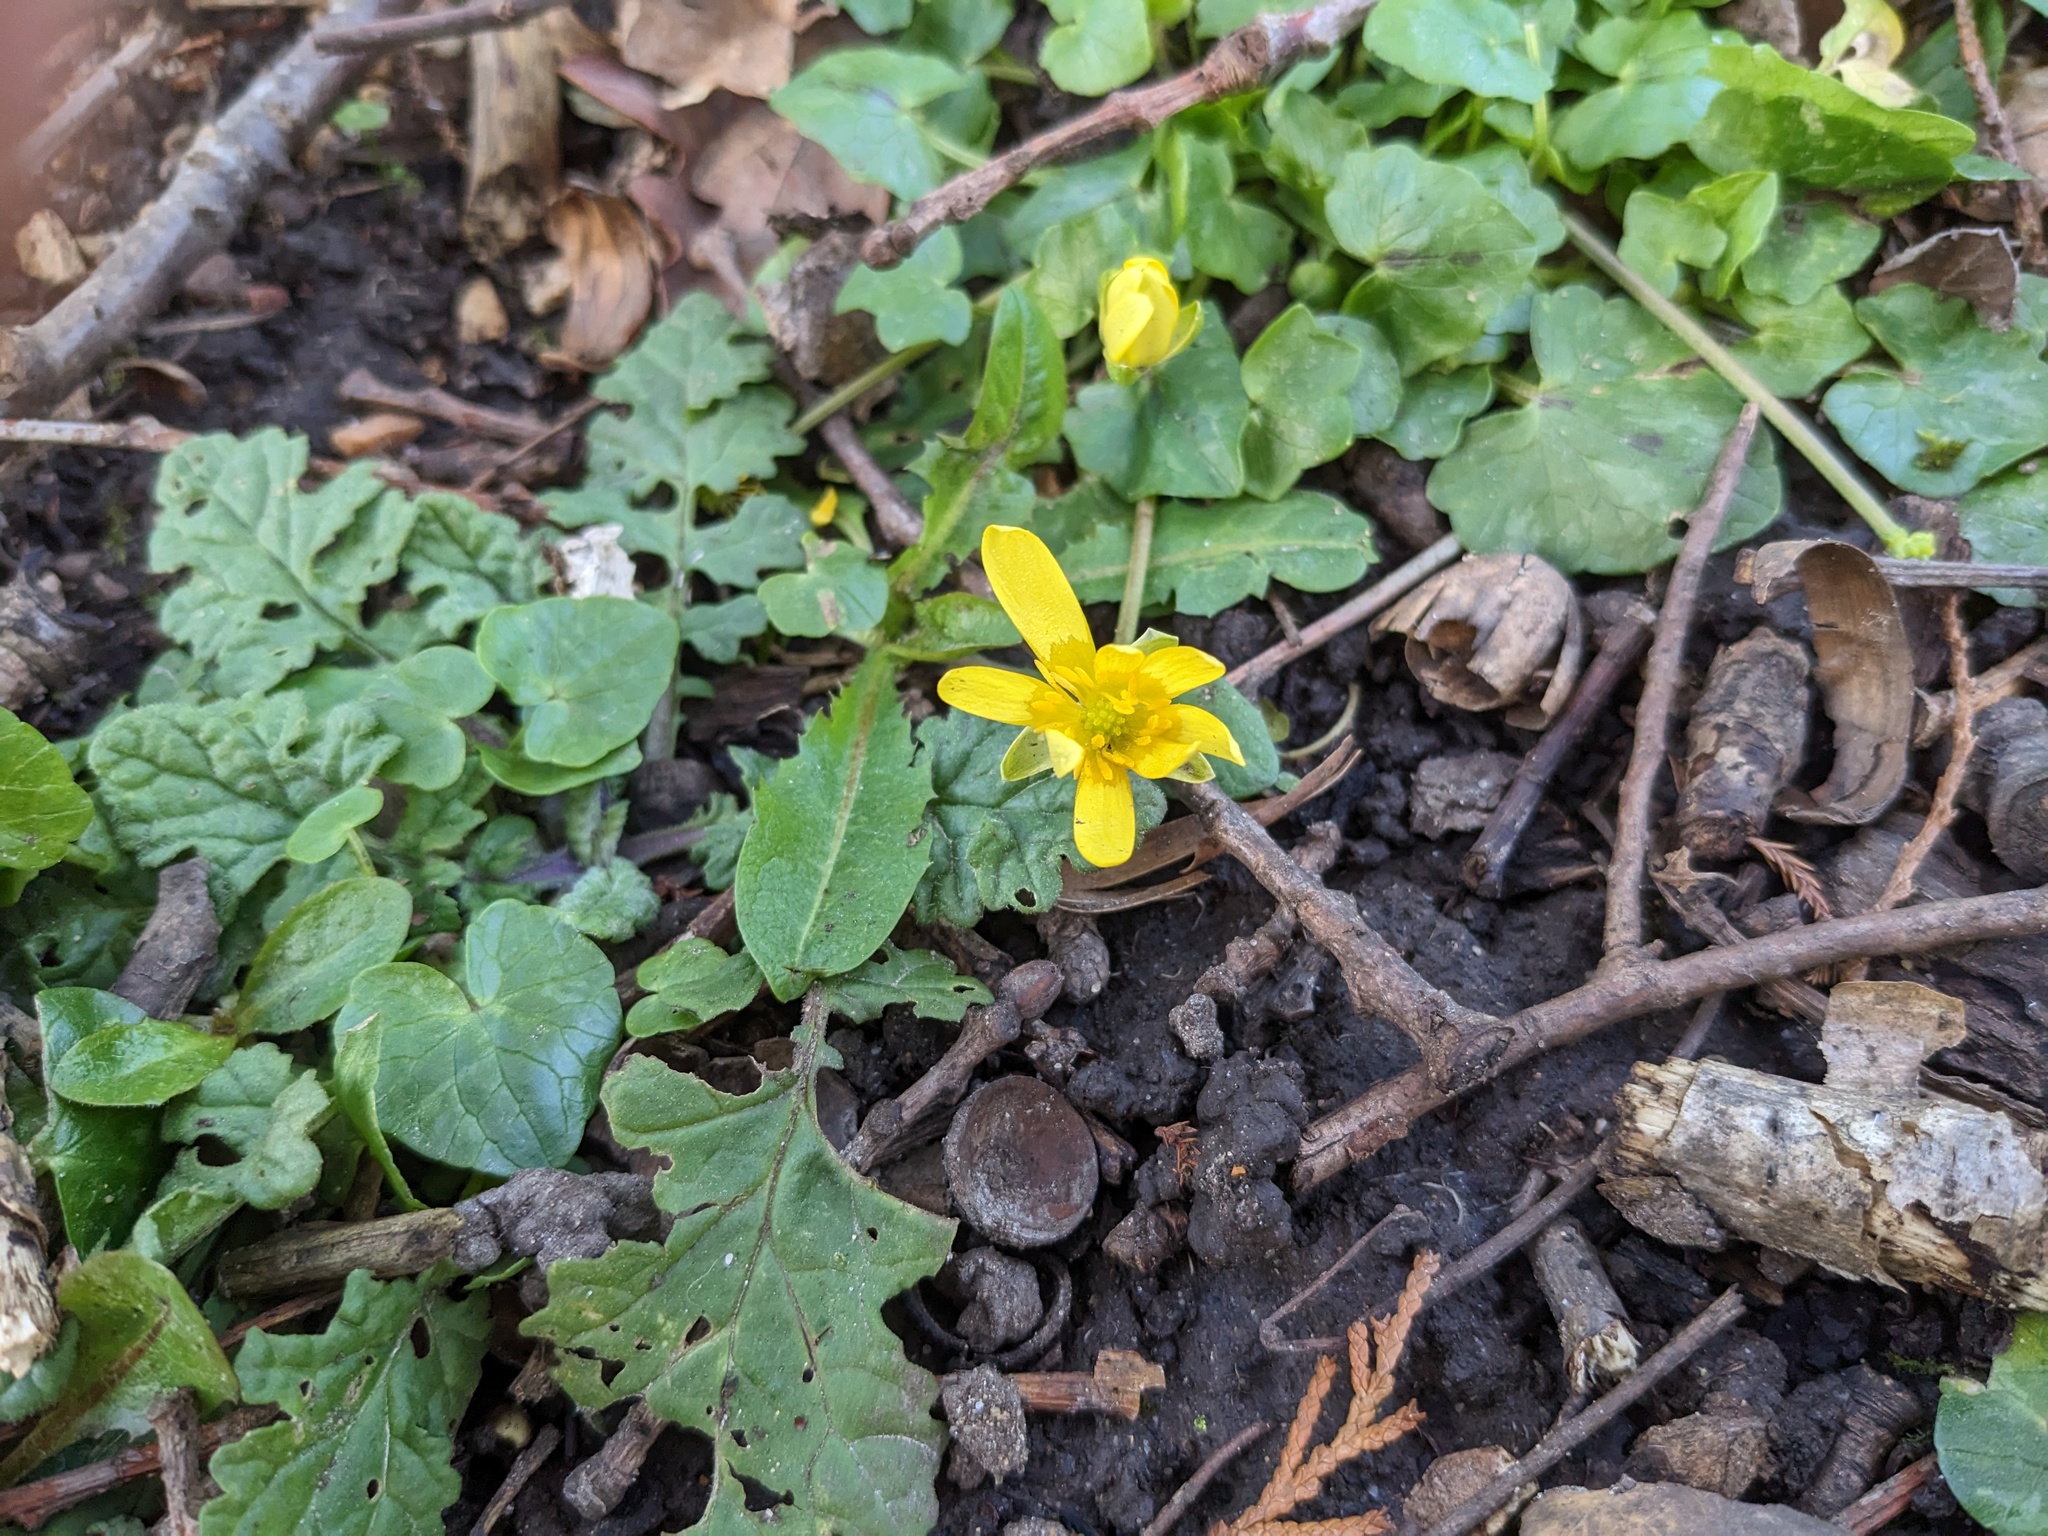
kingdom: Plantae
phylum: Tracheophyta
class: Magnoliopsida
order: Ranunculales
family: Ranunculaceae
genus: Ficaria
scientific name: Ficaria verna
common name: Lesser celandine
